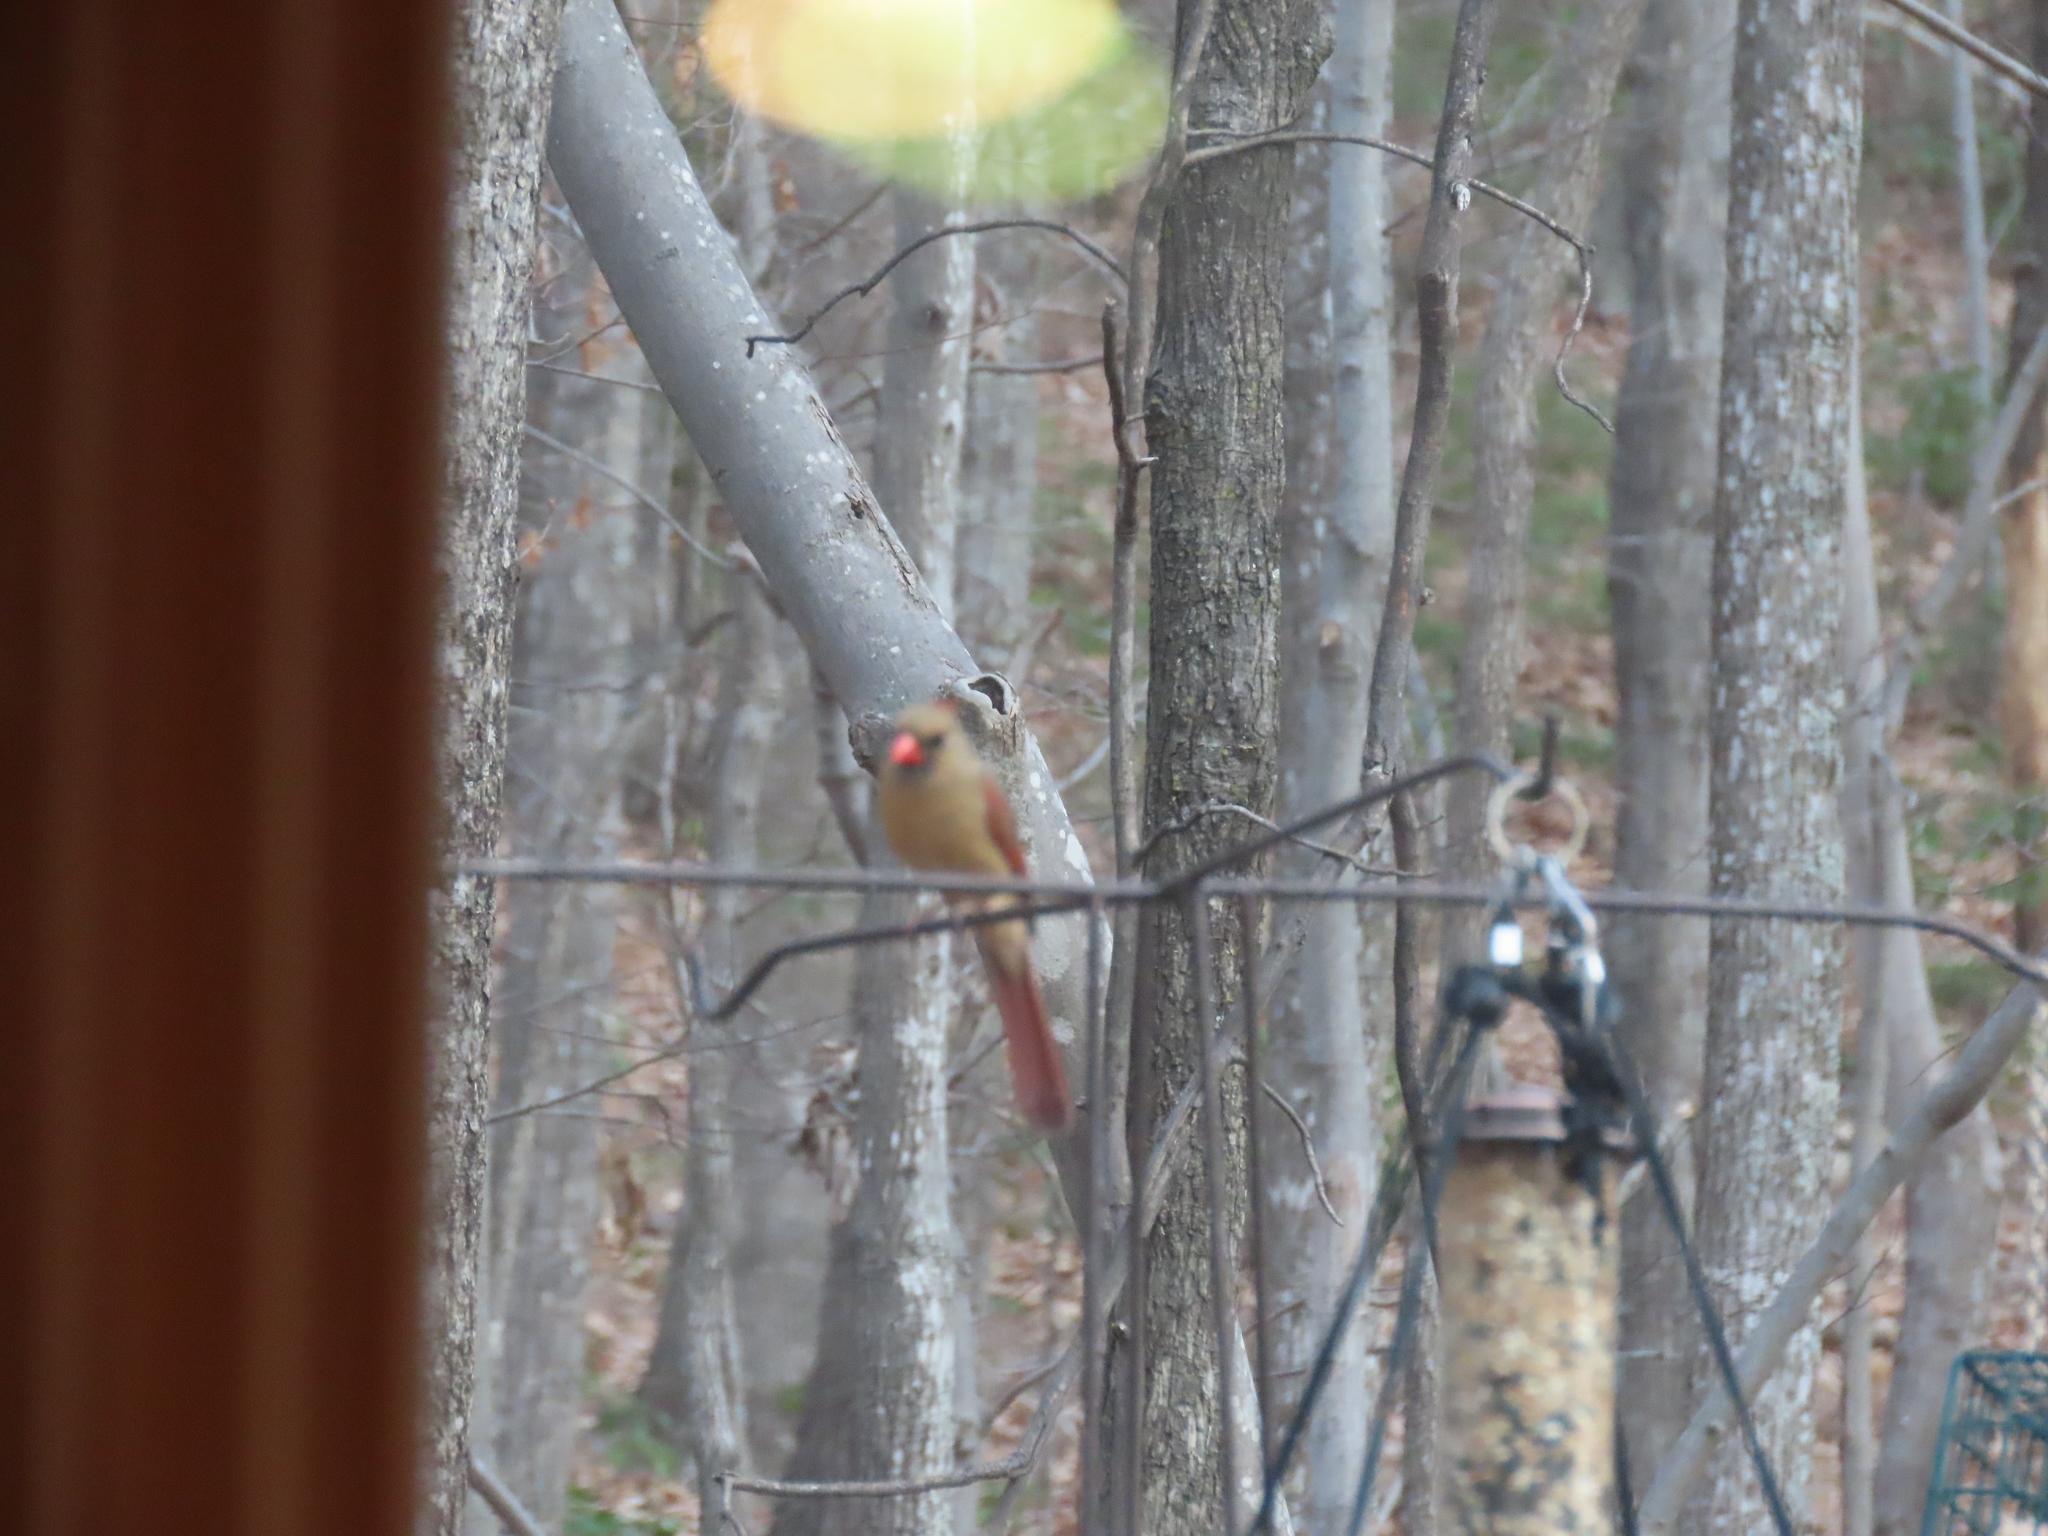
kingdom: Animalia
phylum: Chordata
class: Aves
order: Passeriformes
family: Cardinalidae
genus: Cardinalis
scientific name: Cardinalis cardinalis
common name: Northern cardinal
